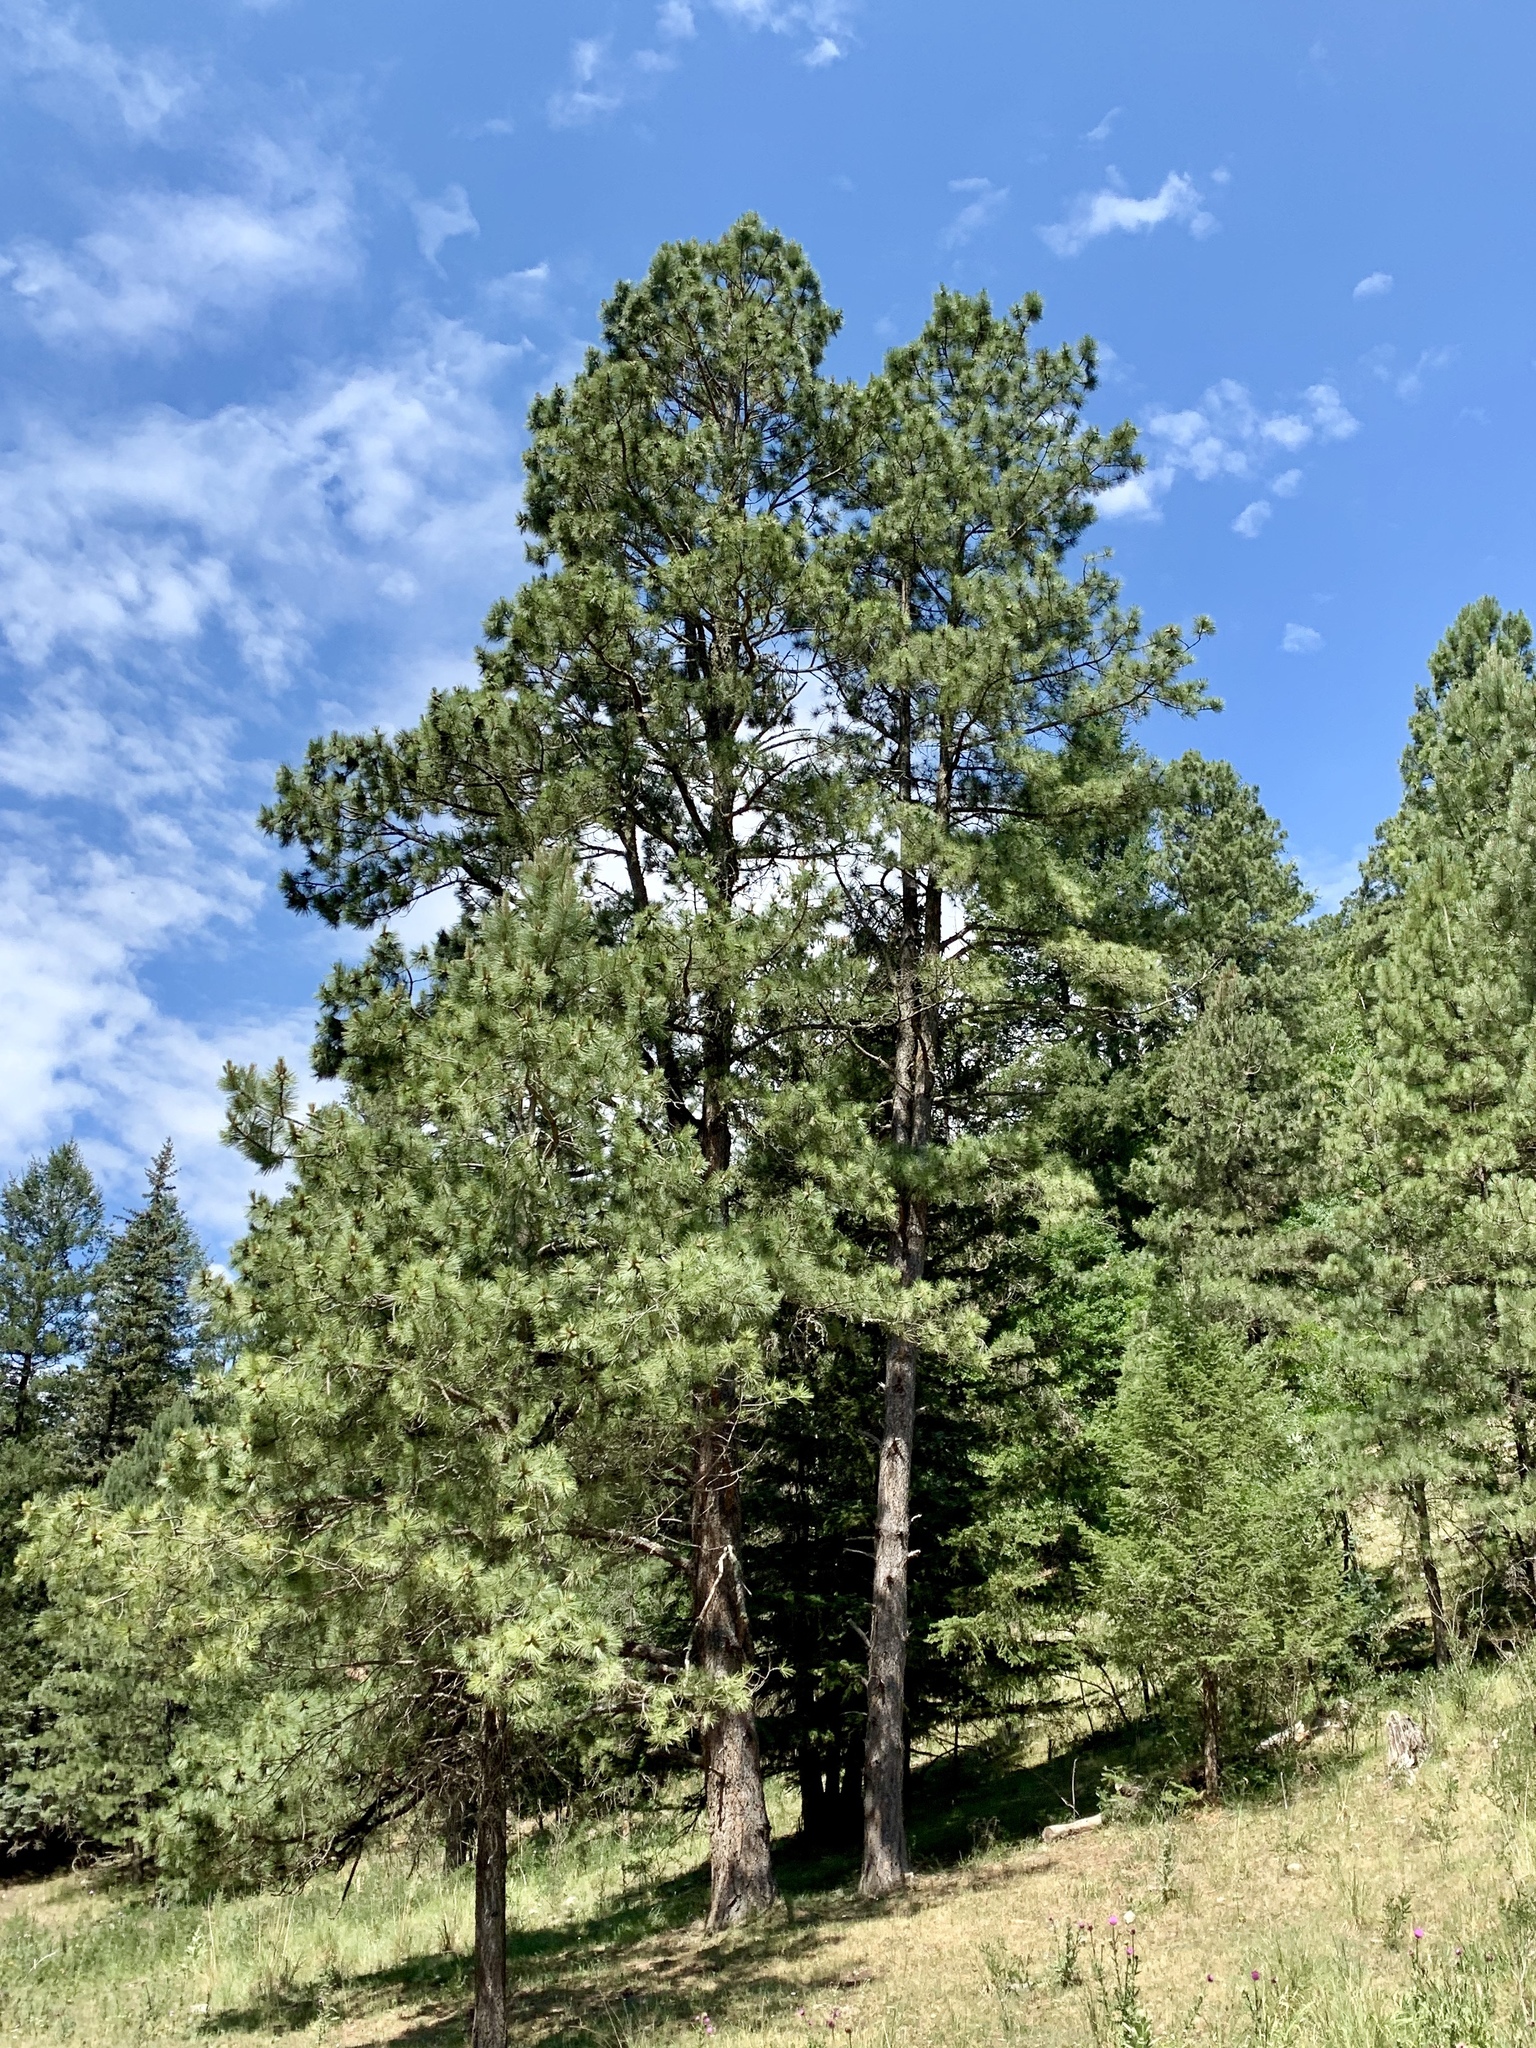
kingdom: Plantae
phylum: Tracheophyta
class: Pinopsida
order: Pinales
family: Pinaceae
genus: Pinus
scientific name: Pinus ponderosa
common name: Western yellow-pine
